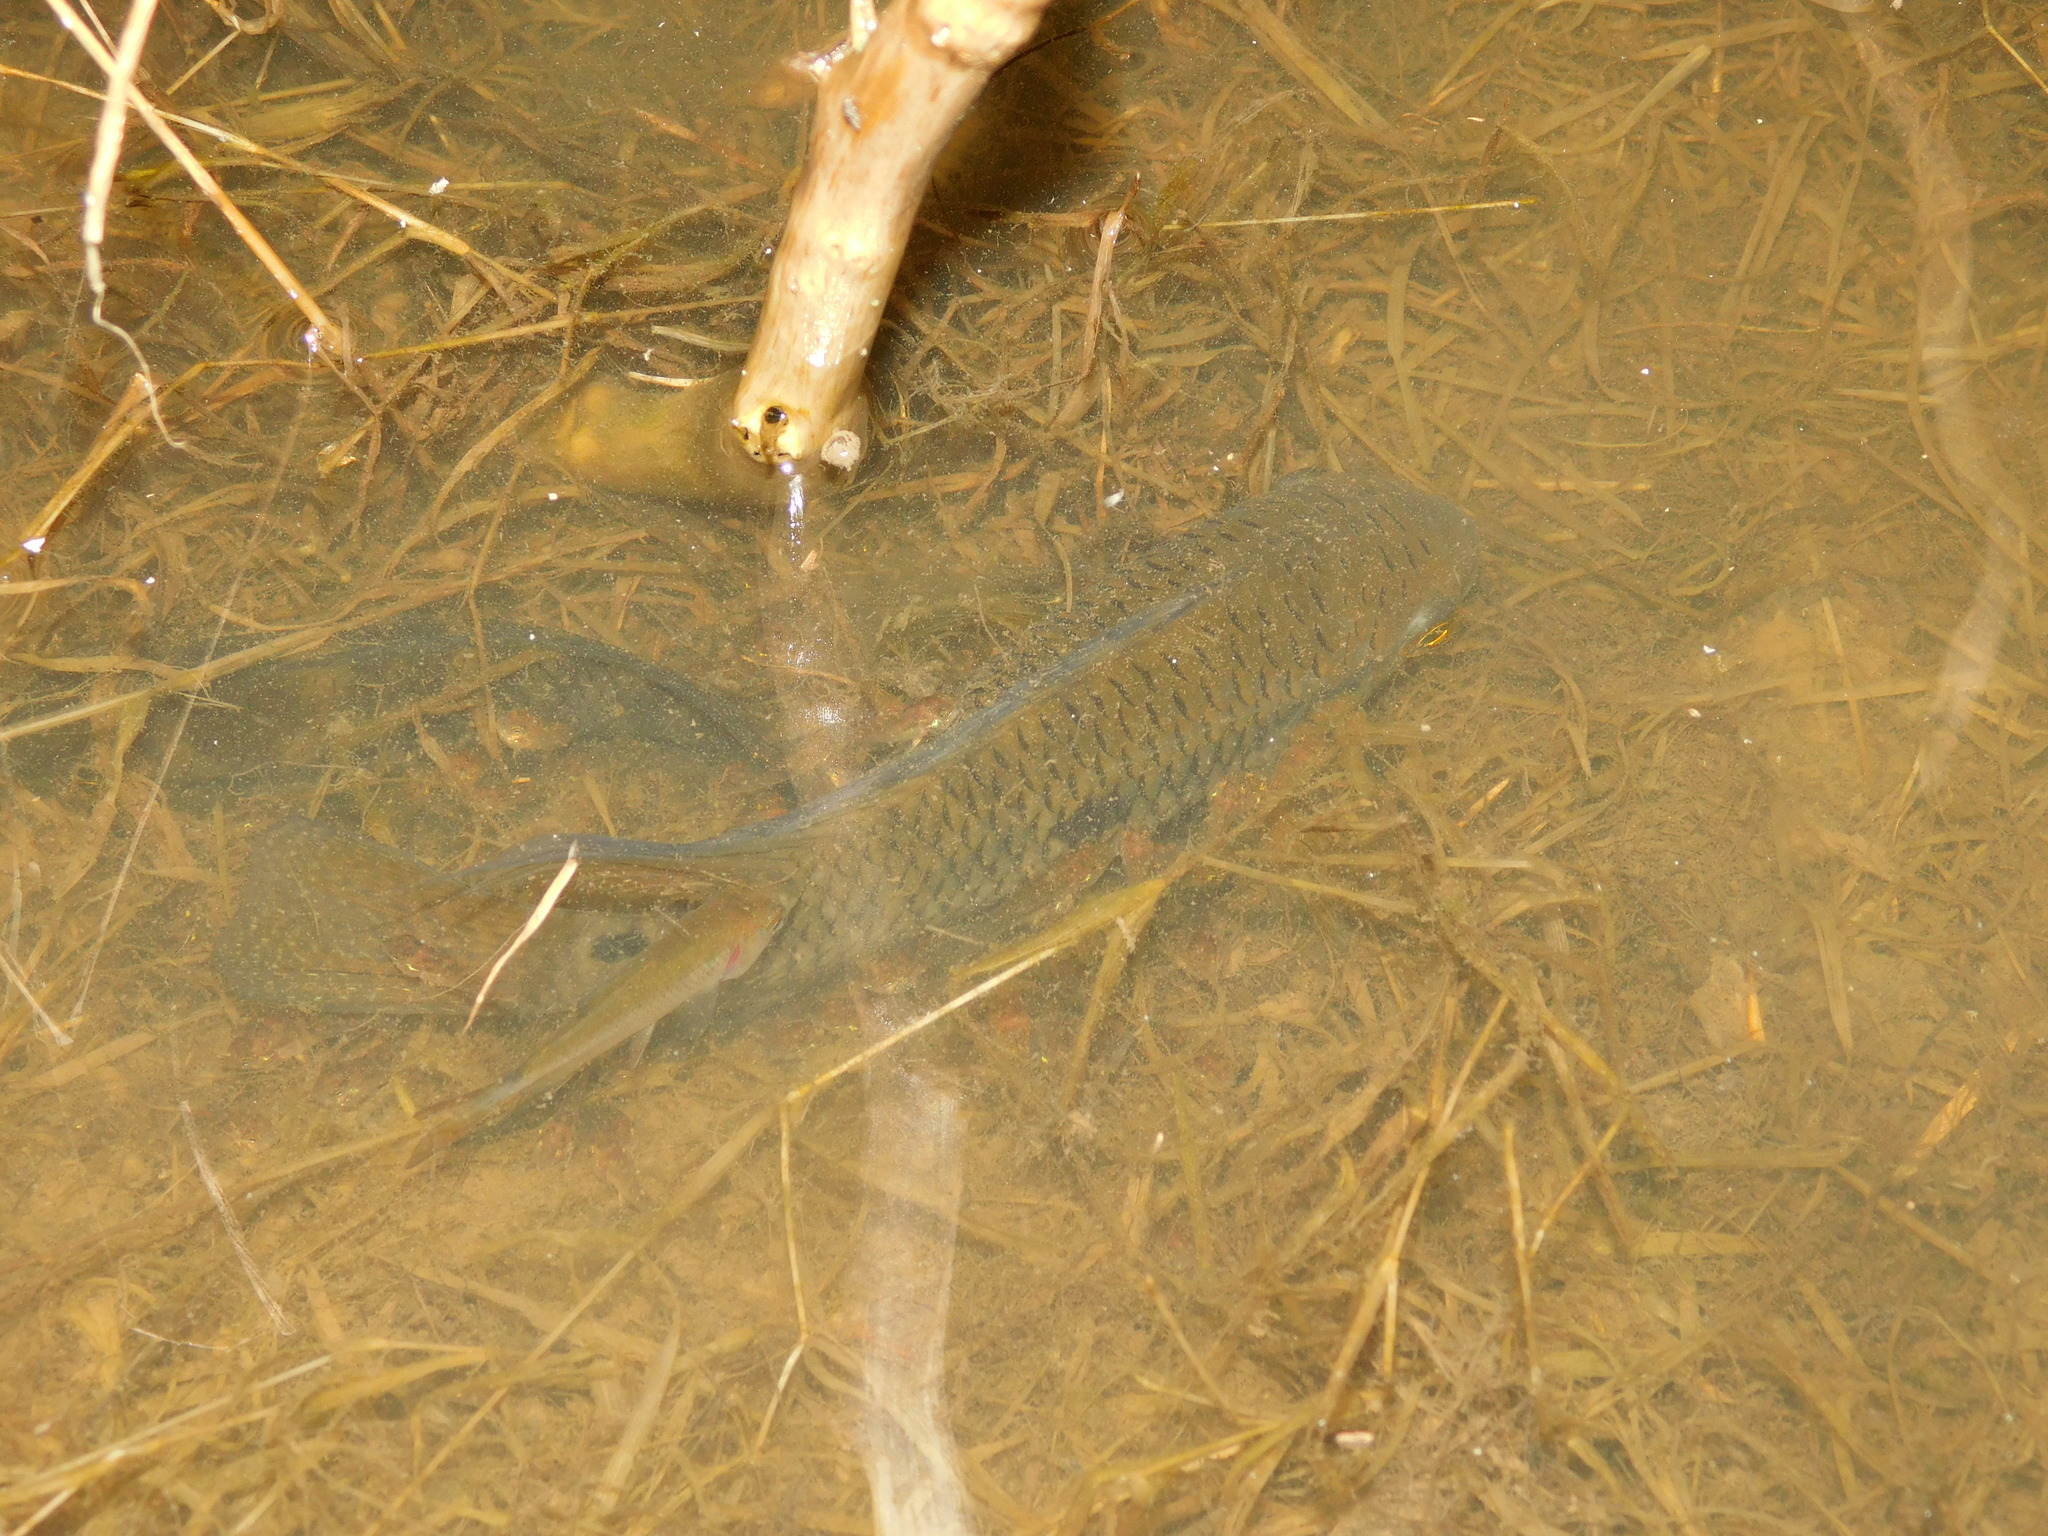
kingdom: Animalia
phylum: Chordata
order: Perciformes
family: Cichlidae
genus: Cichlasoma
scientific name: Cichlasoma dimerus
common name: Chanchita
